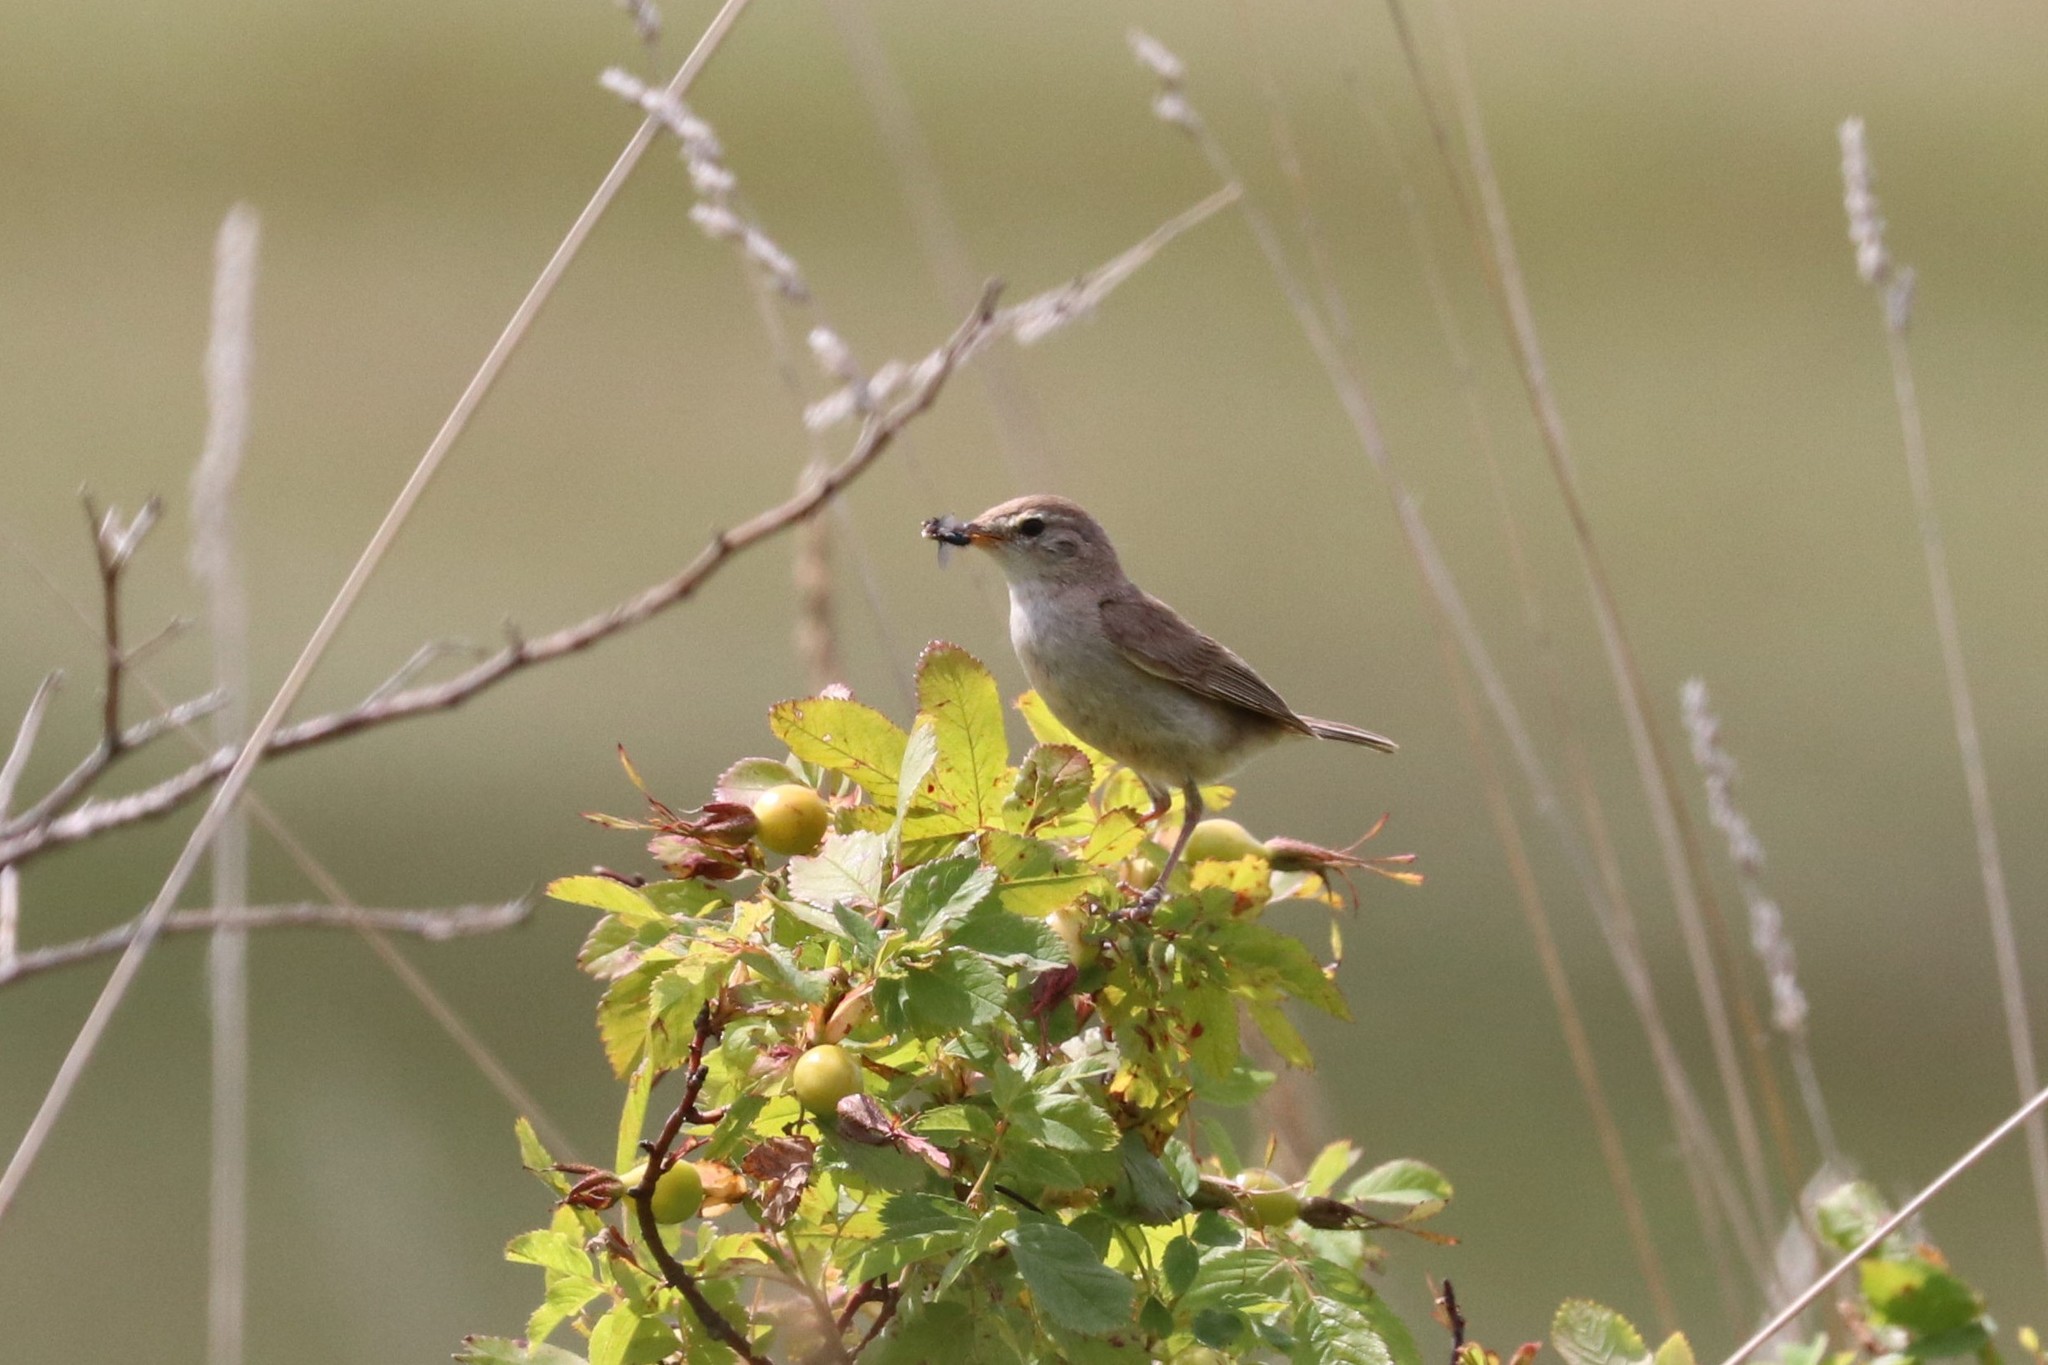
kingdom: Animalia
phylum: Chordata
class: Aves
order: Passeriformes
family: Acrocephalidae
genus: Iduna
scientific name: Iduna caligata
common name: Booted warbler
